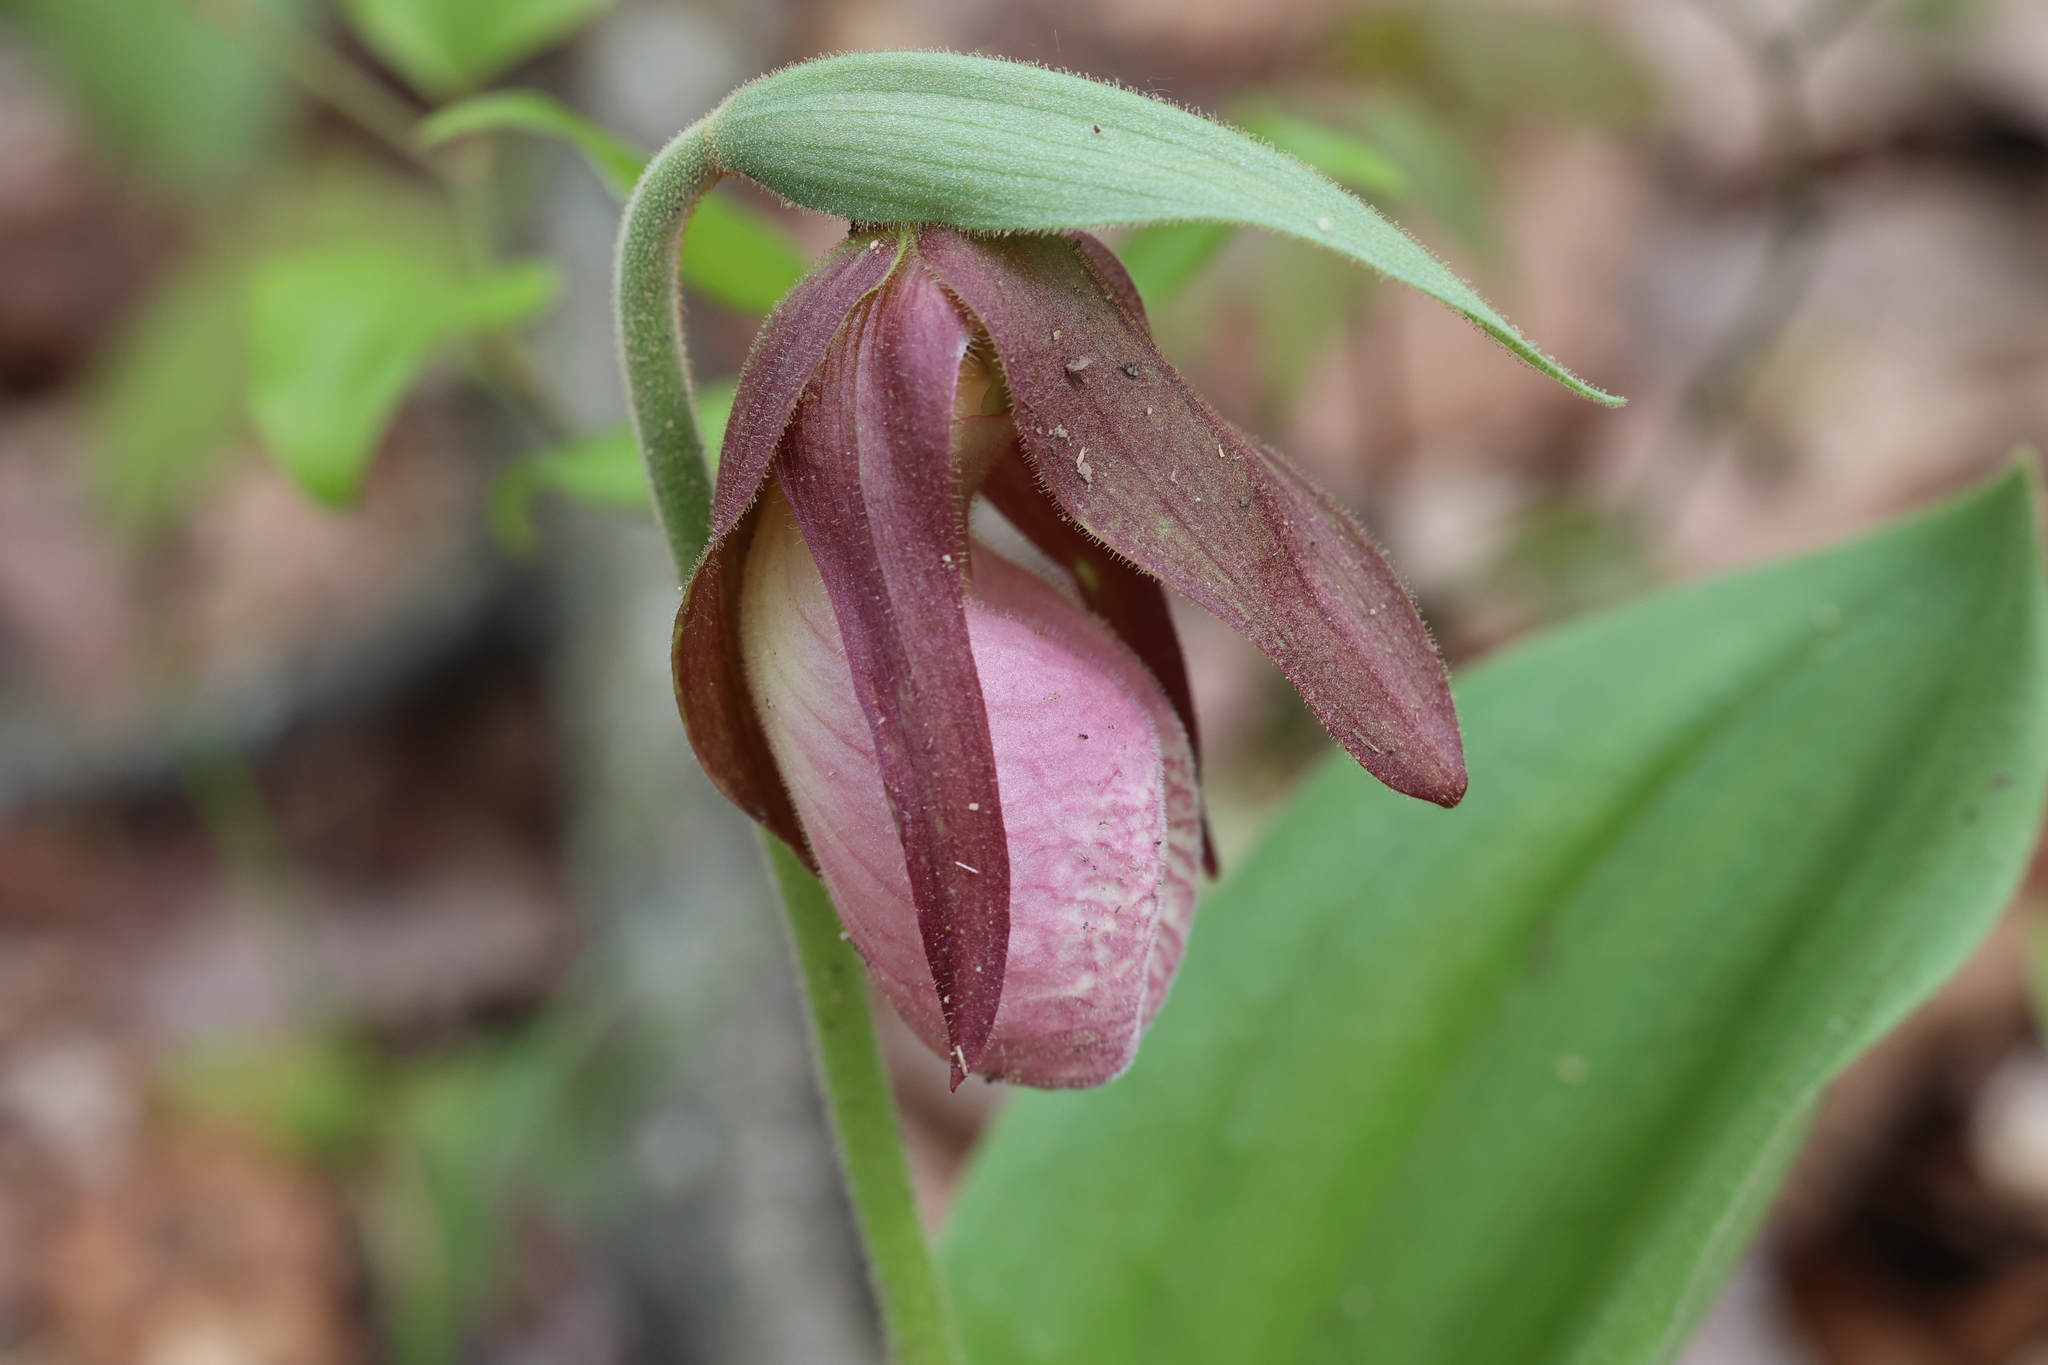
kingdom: Plantae
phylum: Tracheophyta
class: Liliopsida
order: Asparagales
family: Orchidaceae
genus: Cypripedium
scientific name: Cypripedium acaule
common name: Pink lady's-slipper
